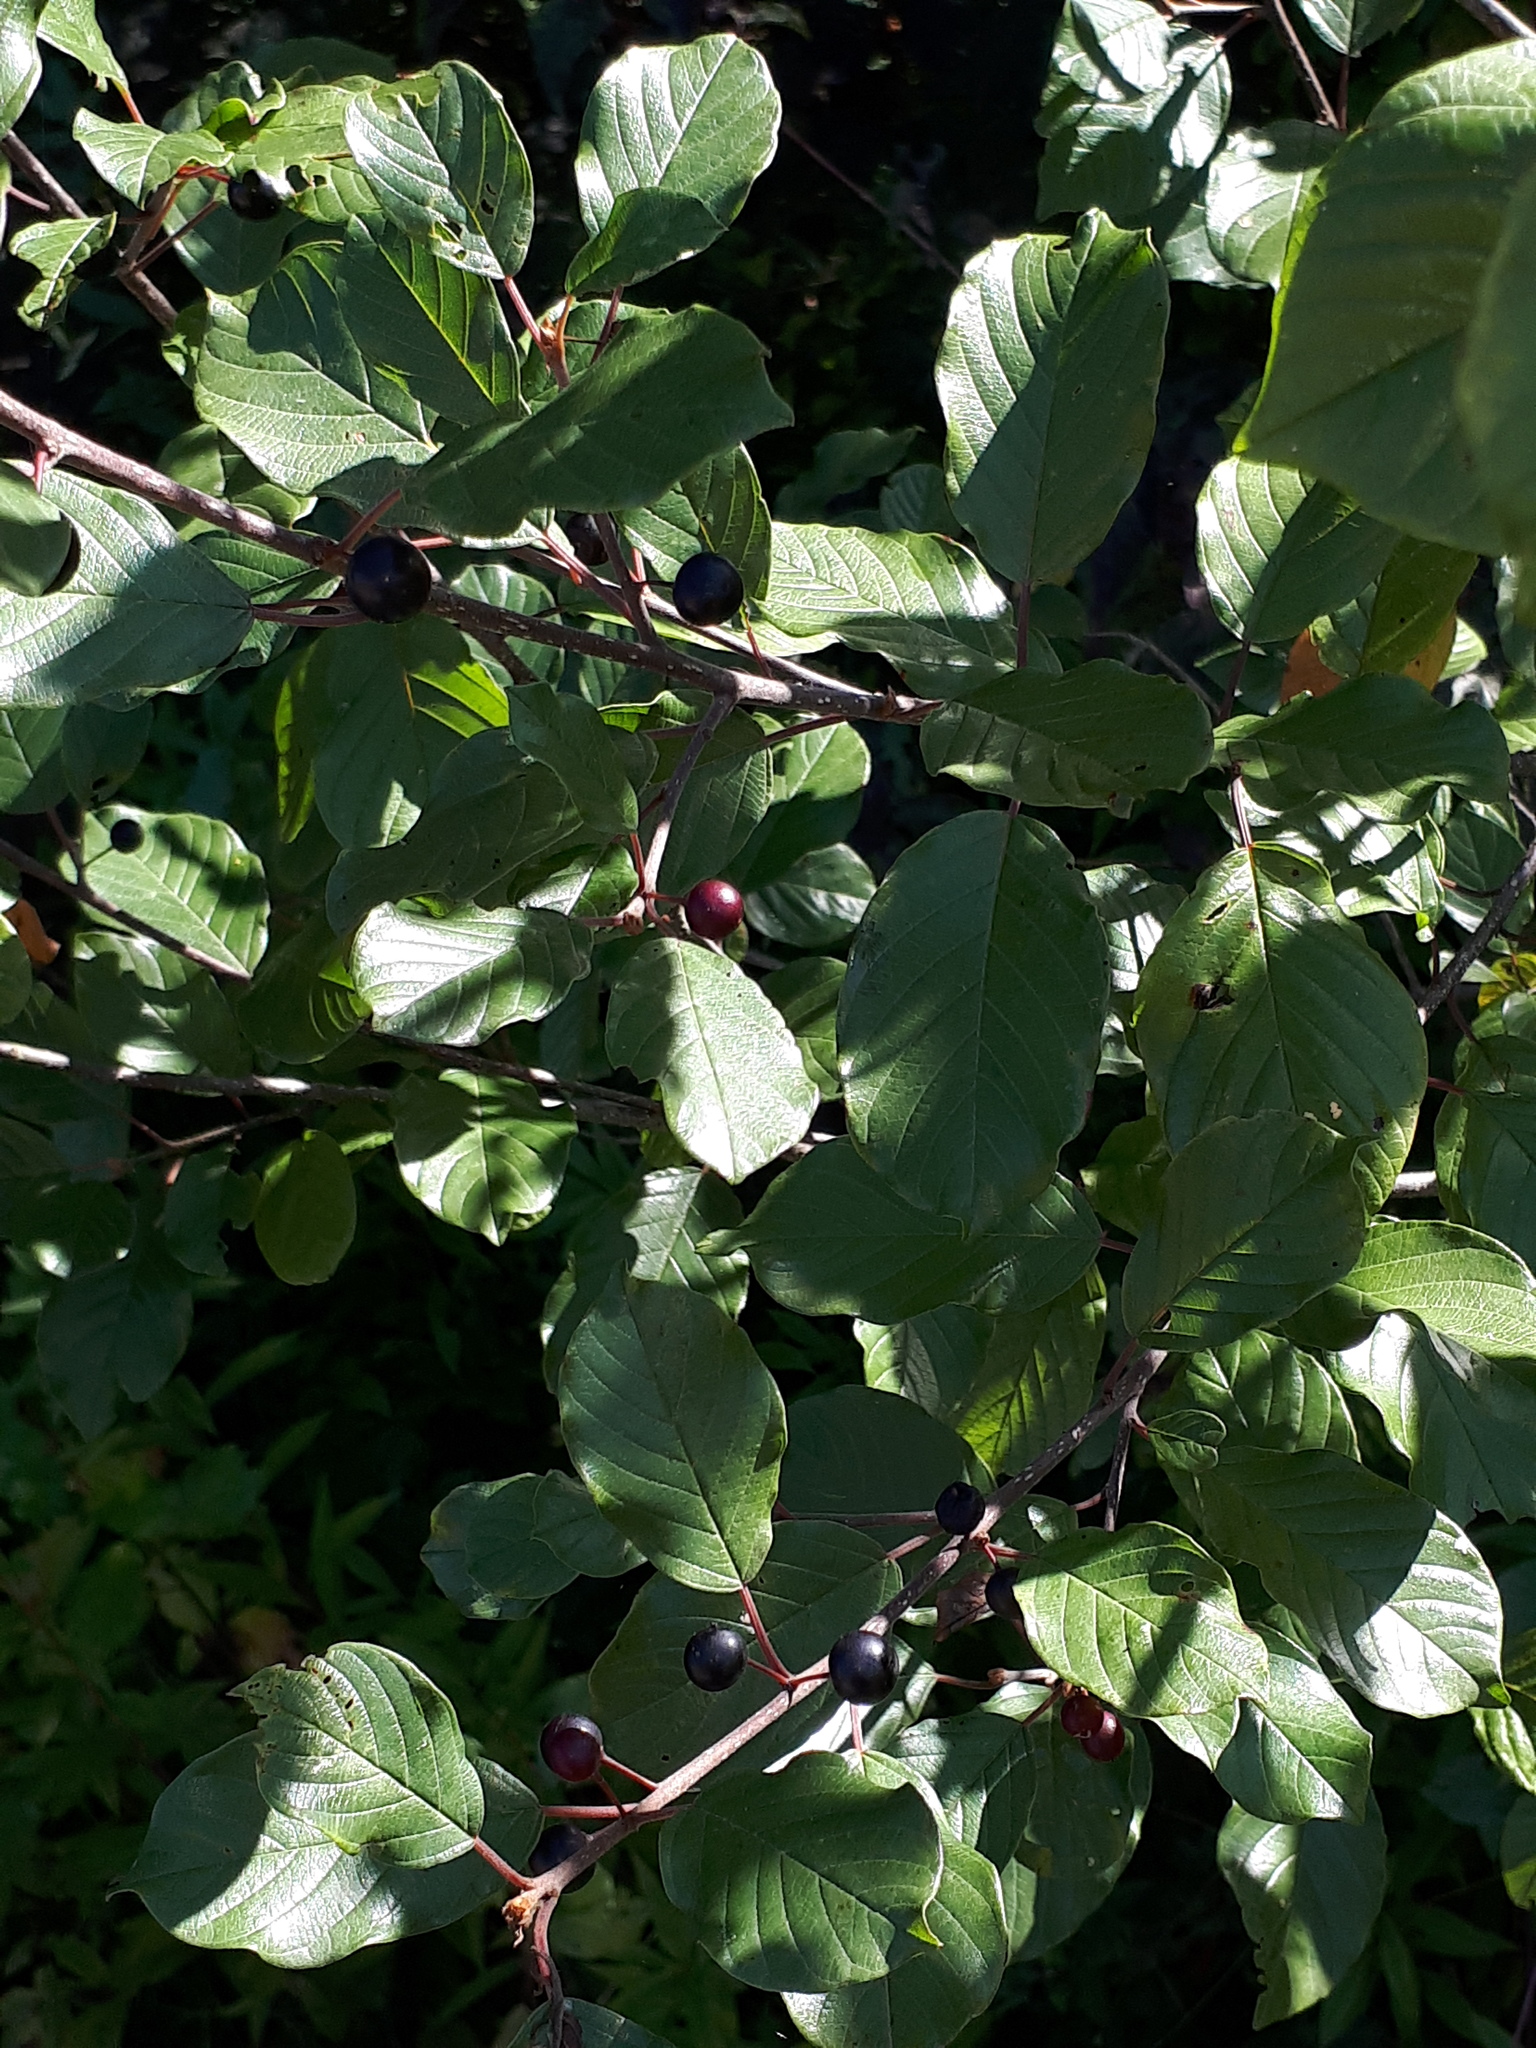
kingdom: Plantae
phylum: Tracheophyta
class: Magnoliopsida
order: Rosales
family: Rhamnaceae
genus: Frangula
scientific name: Frangula alnus
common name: Alder buckthorn
